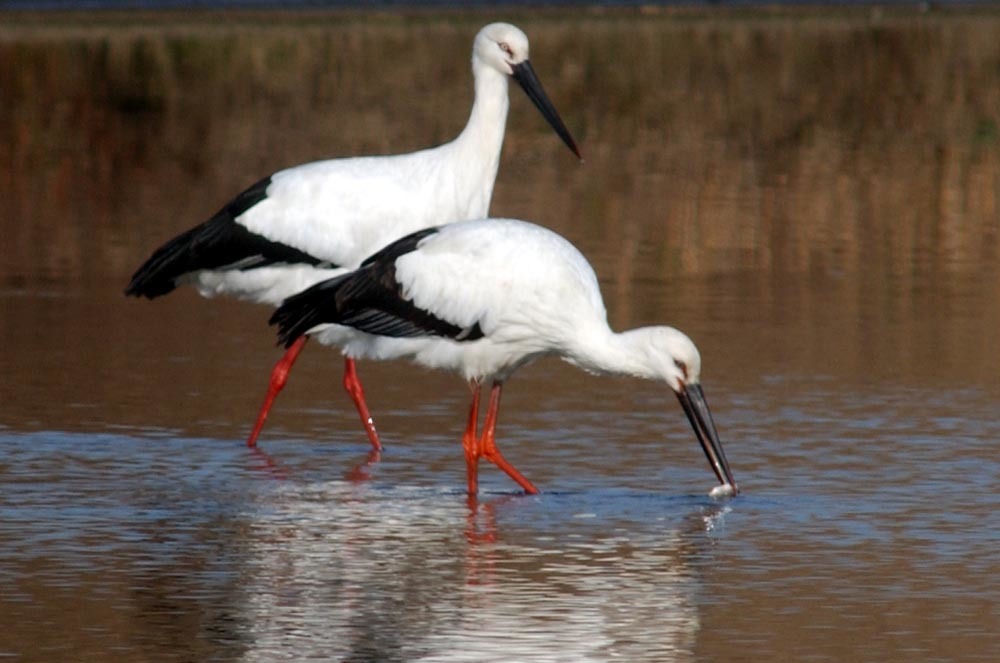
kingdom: Animalia
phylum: Chordata
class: Aves
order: Ciconiiformes
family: Ciconiidae
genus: Ciconia
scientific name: Ciconia boyciana
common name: Oriental stork
